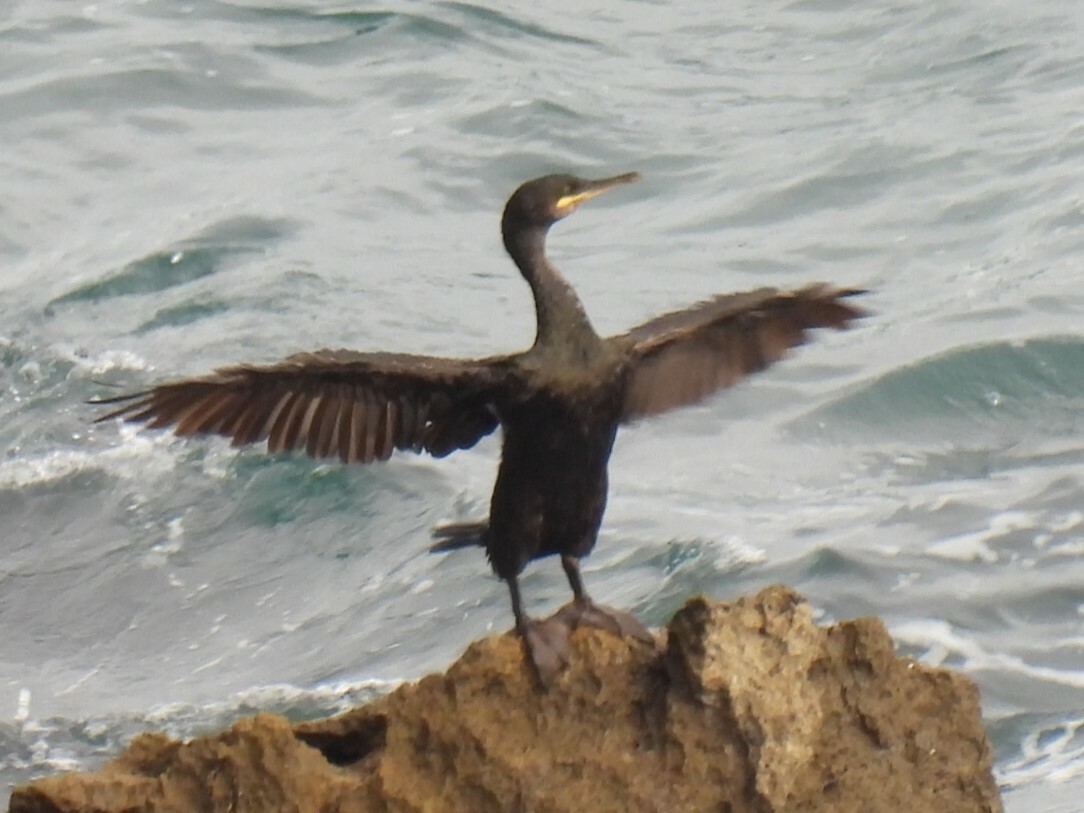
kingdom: Animalia
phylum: Chordata
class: Aves
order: Suliformes
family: Phalacrocoracidae
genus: Phalacrocorax
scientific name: Phalacrocorax aristotelis
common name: European shag
